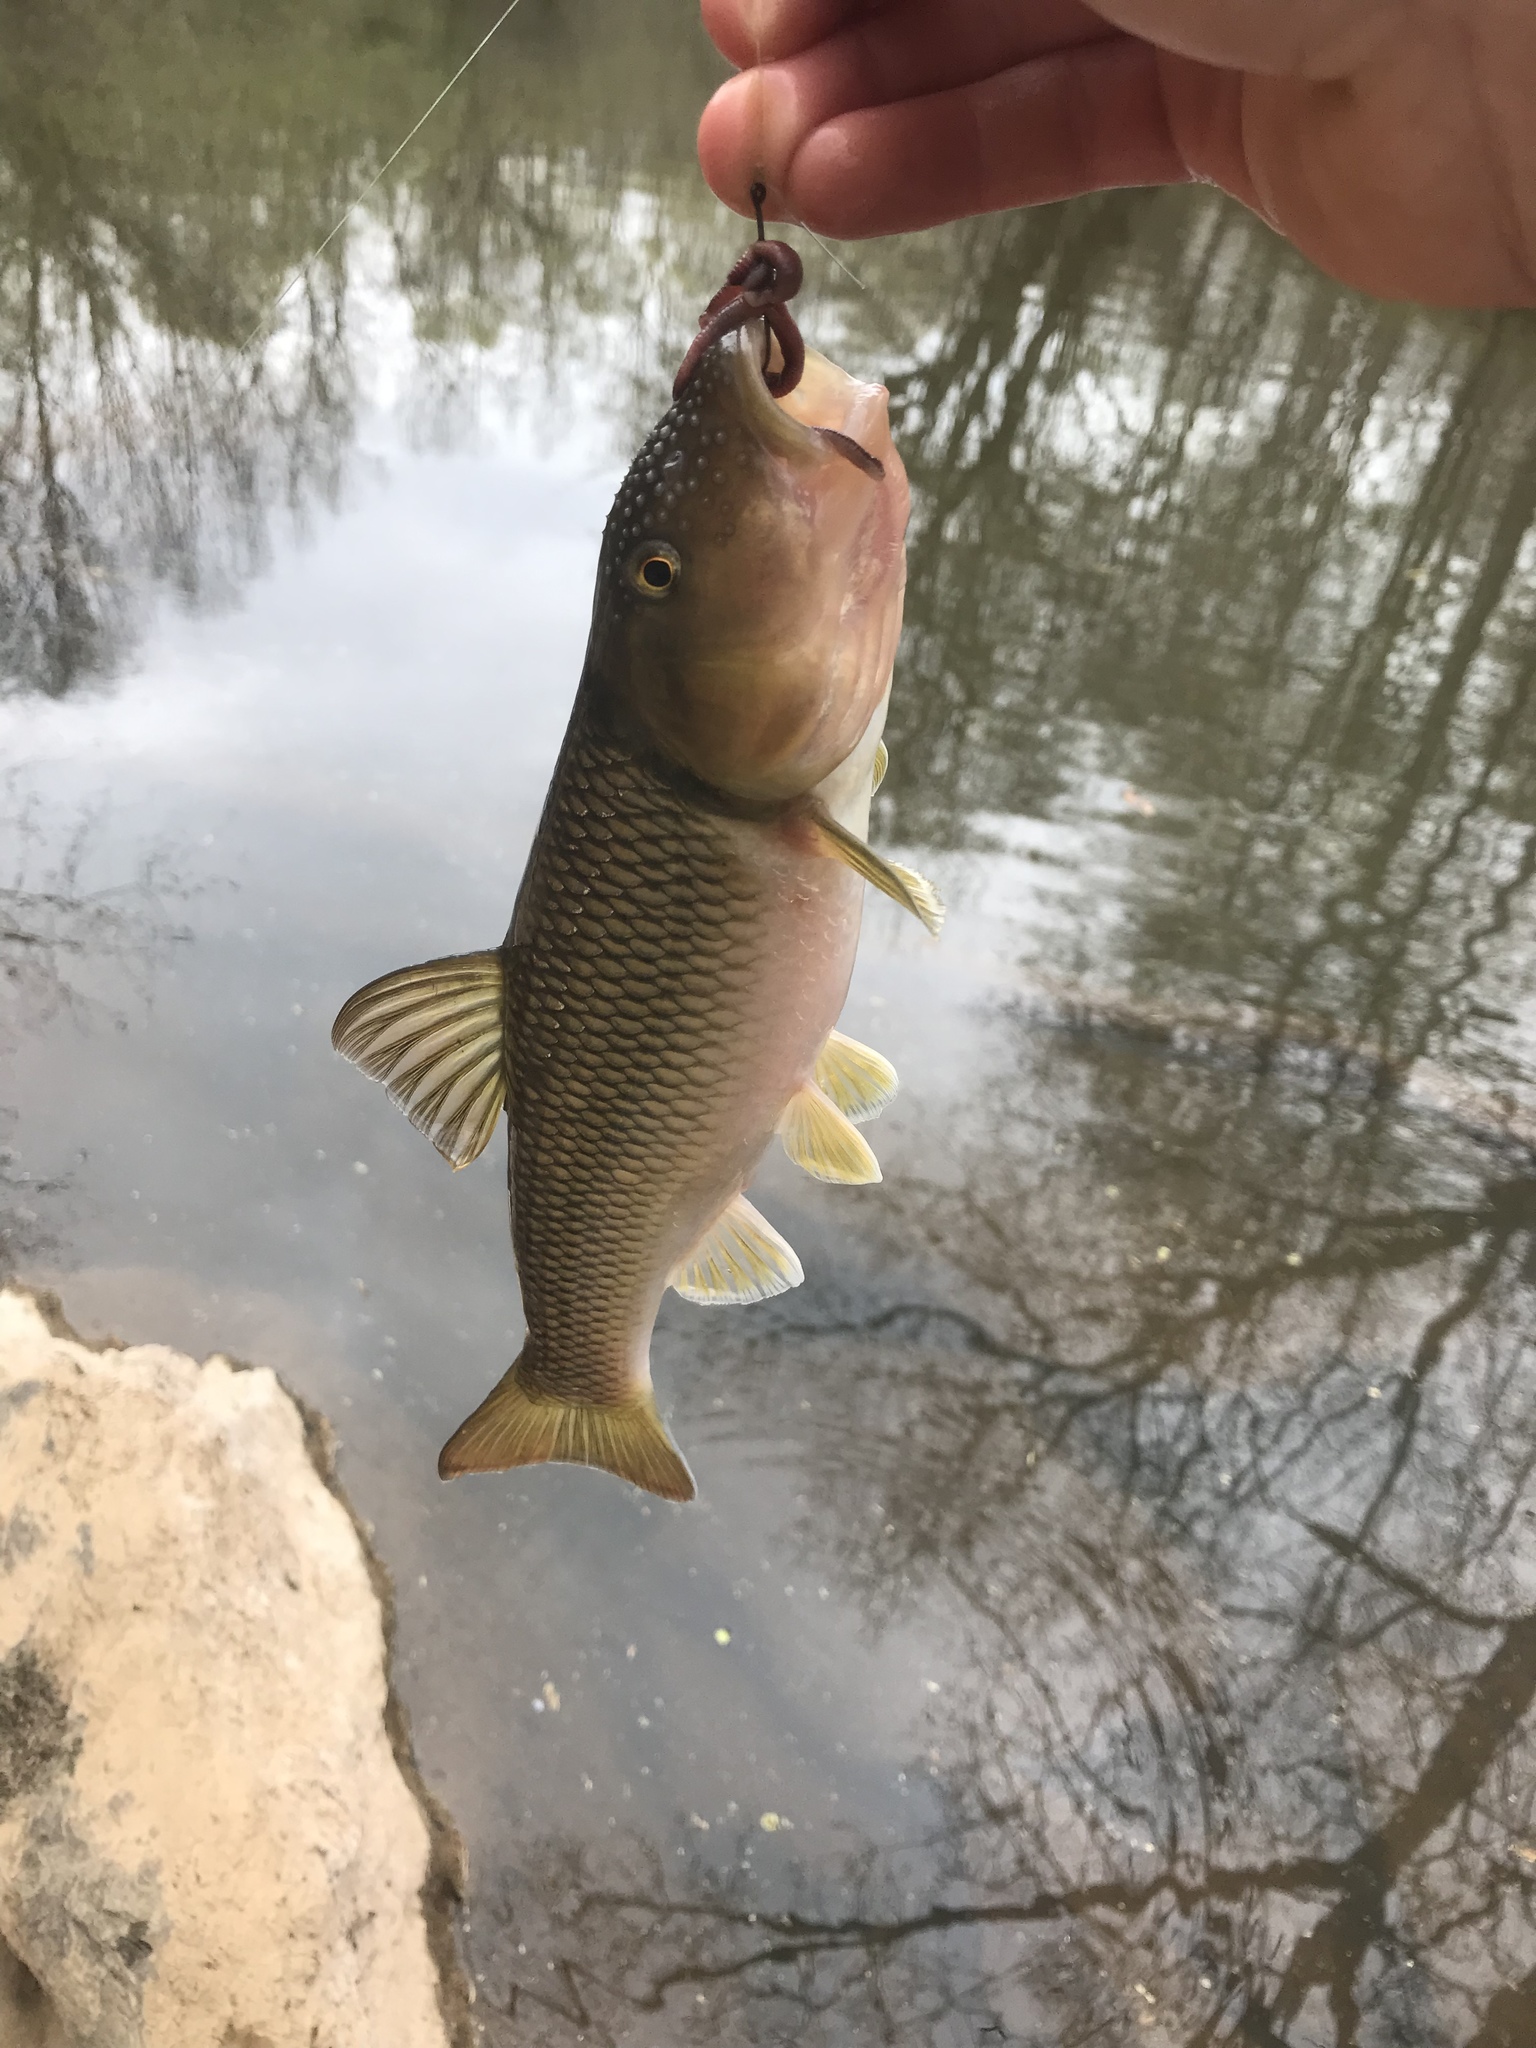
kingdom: Animalia
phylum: Chordata
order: Cypriniformes
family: Cyprinidae
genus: Nocomis
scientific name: Nocomis raneyi
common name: Bull chub
